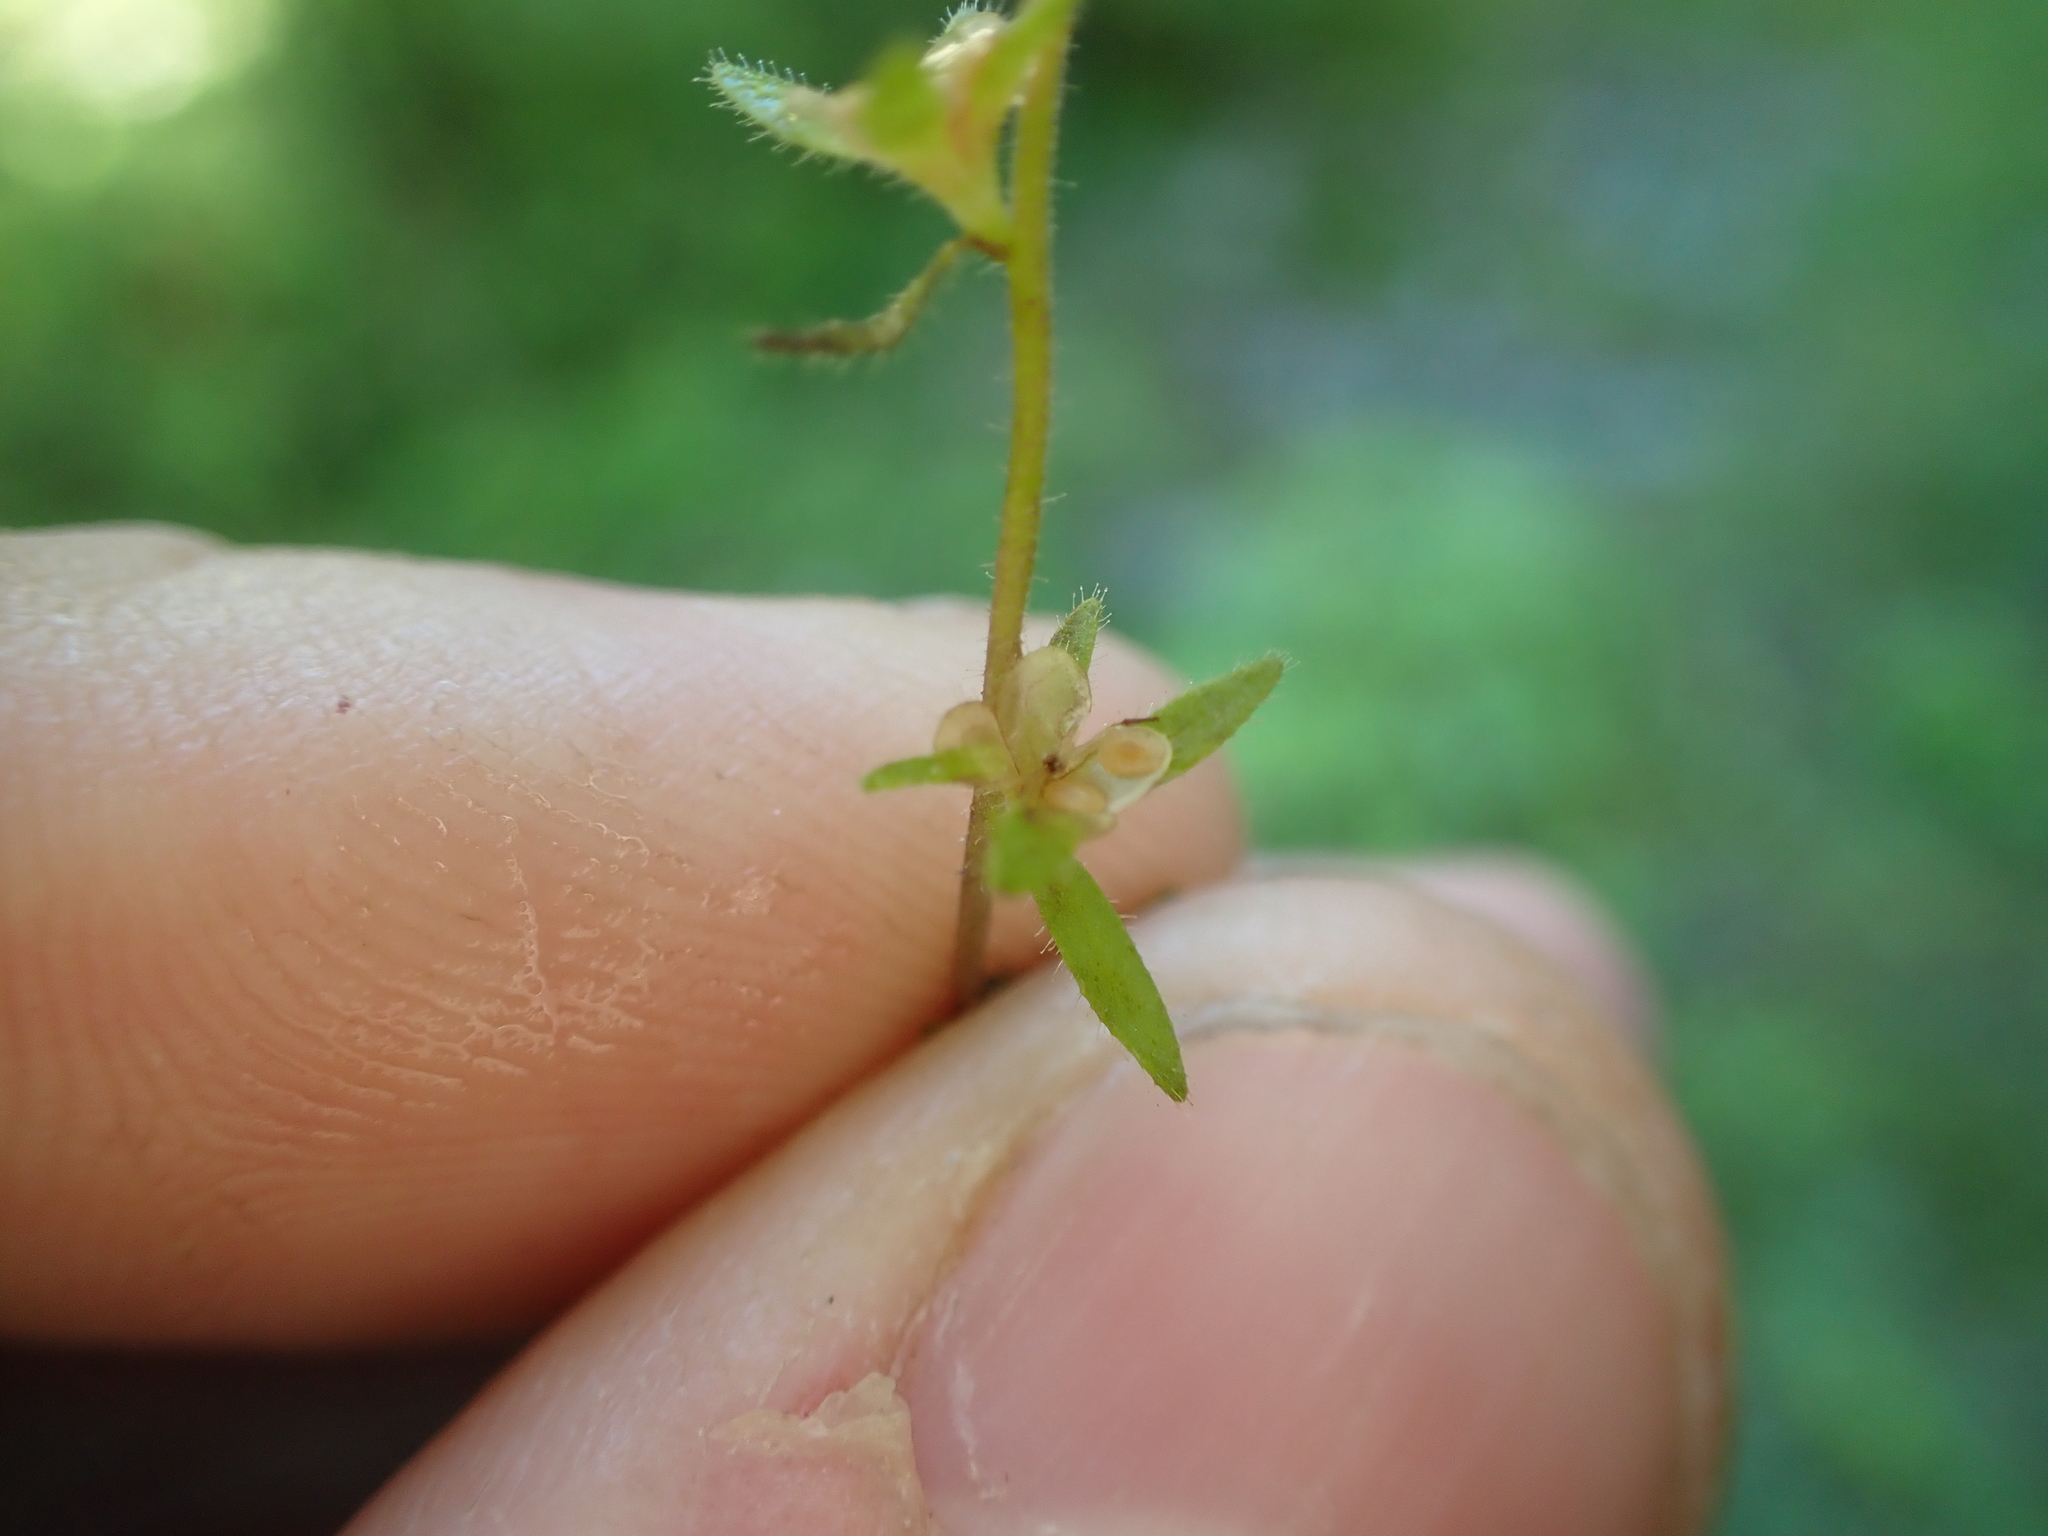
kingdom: Plantae
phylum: Tracheophyta
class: Magnoliopsida
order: Lamiales
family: Plantaginaceae
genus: Veronica
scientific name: Veronica arvensis
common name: Corn speedwell
